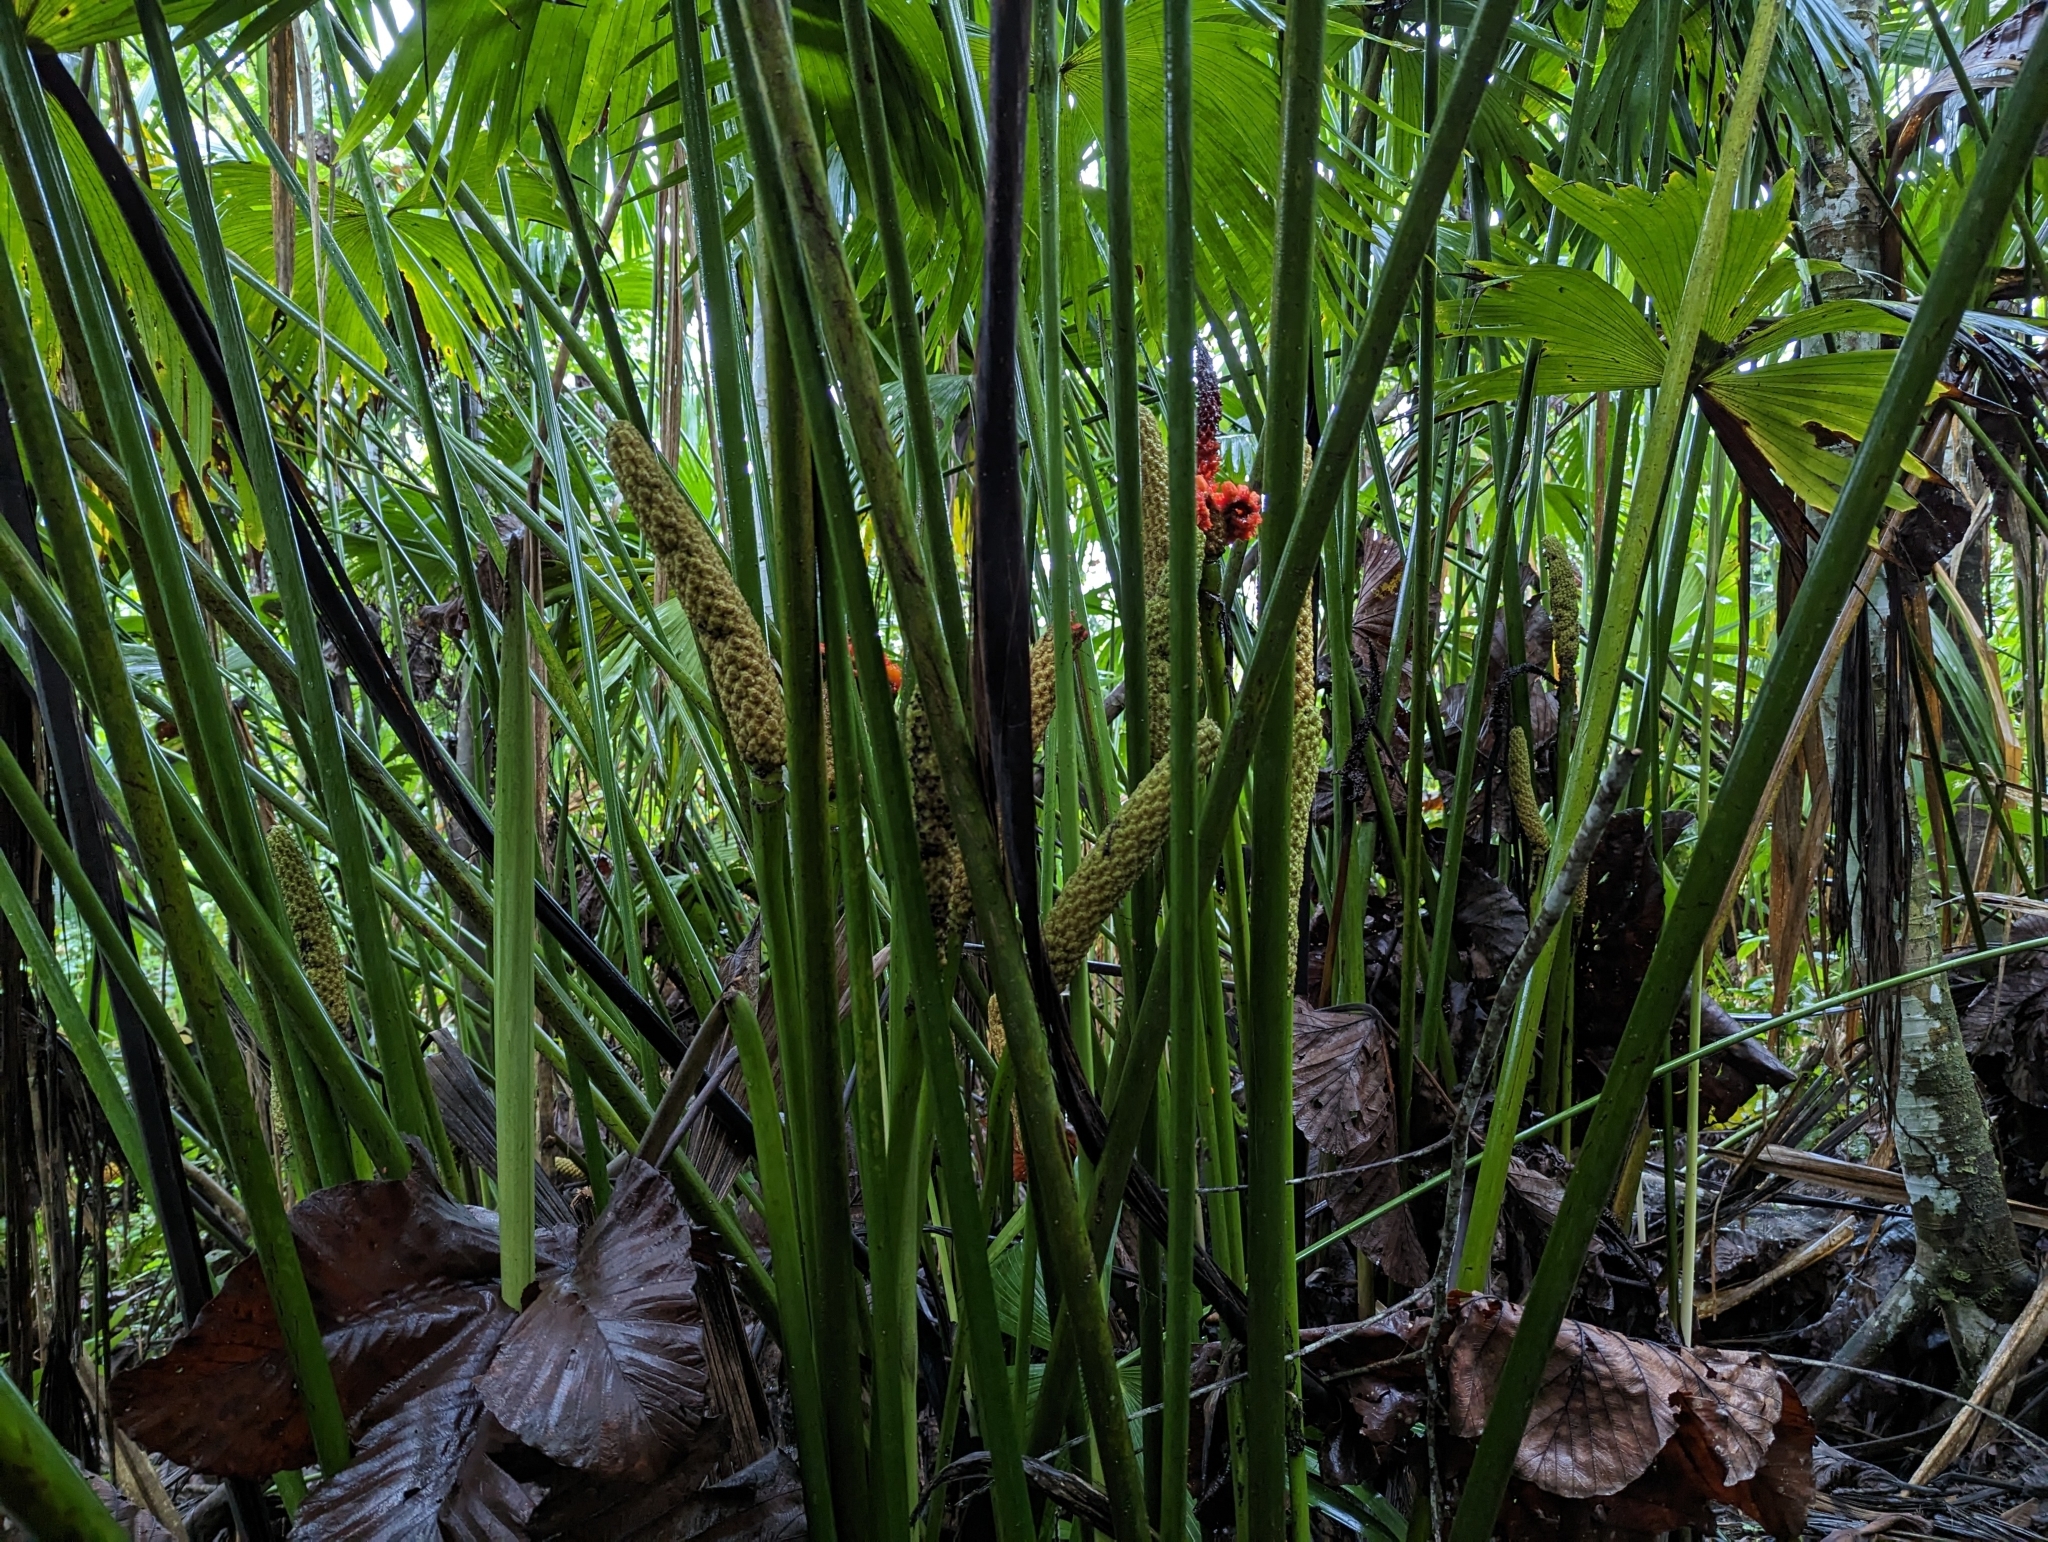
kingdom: Plantae
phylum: Tracheophyta
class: Liliopsida
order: Pandanales
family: Cyclanthaceae
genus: Carludovica
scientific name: Carludovica palmata
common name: Panama hat plant
